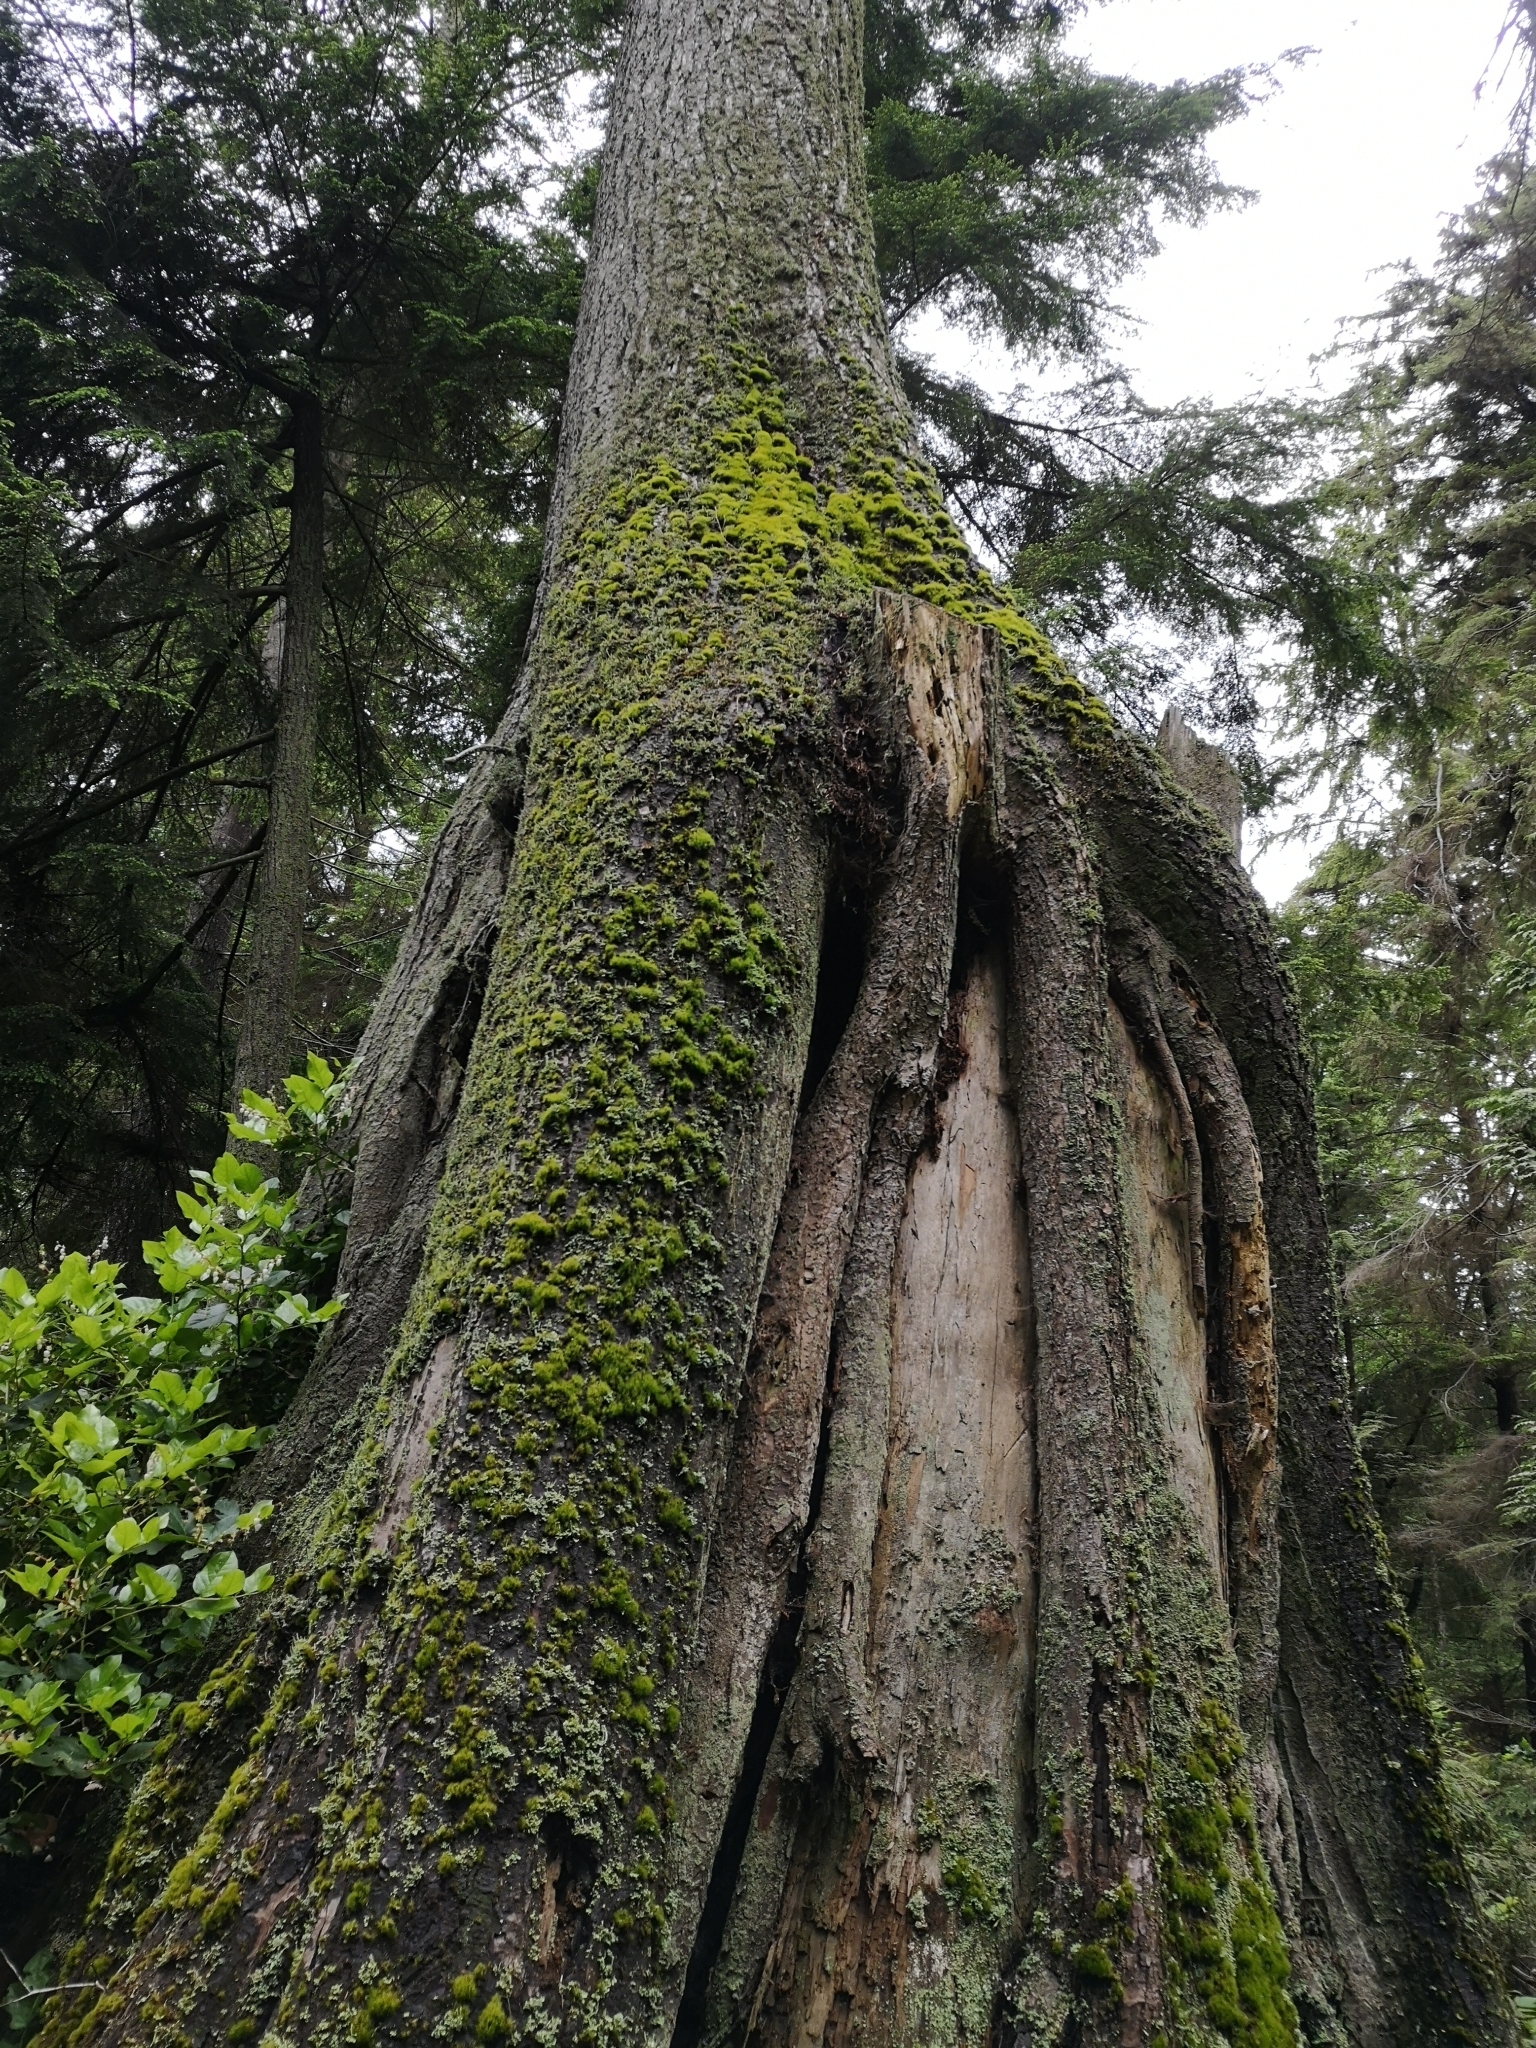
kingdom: Plantae
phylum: Tracheophyta
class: Pinopsida
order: Pinales
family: Pinaceae
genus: Tsuga
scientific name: Tsuga heterophylla
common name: Western hemlock
